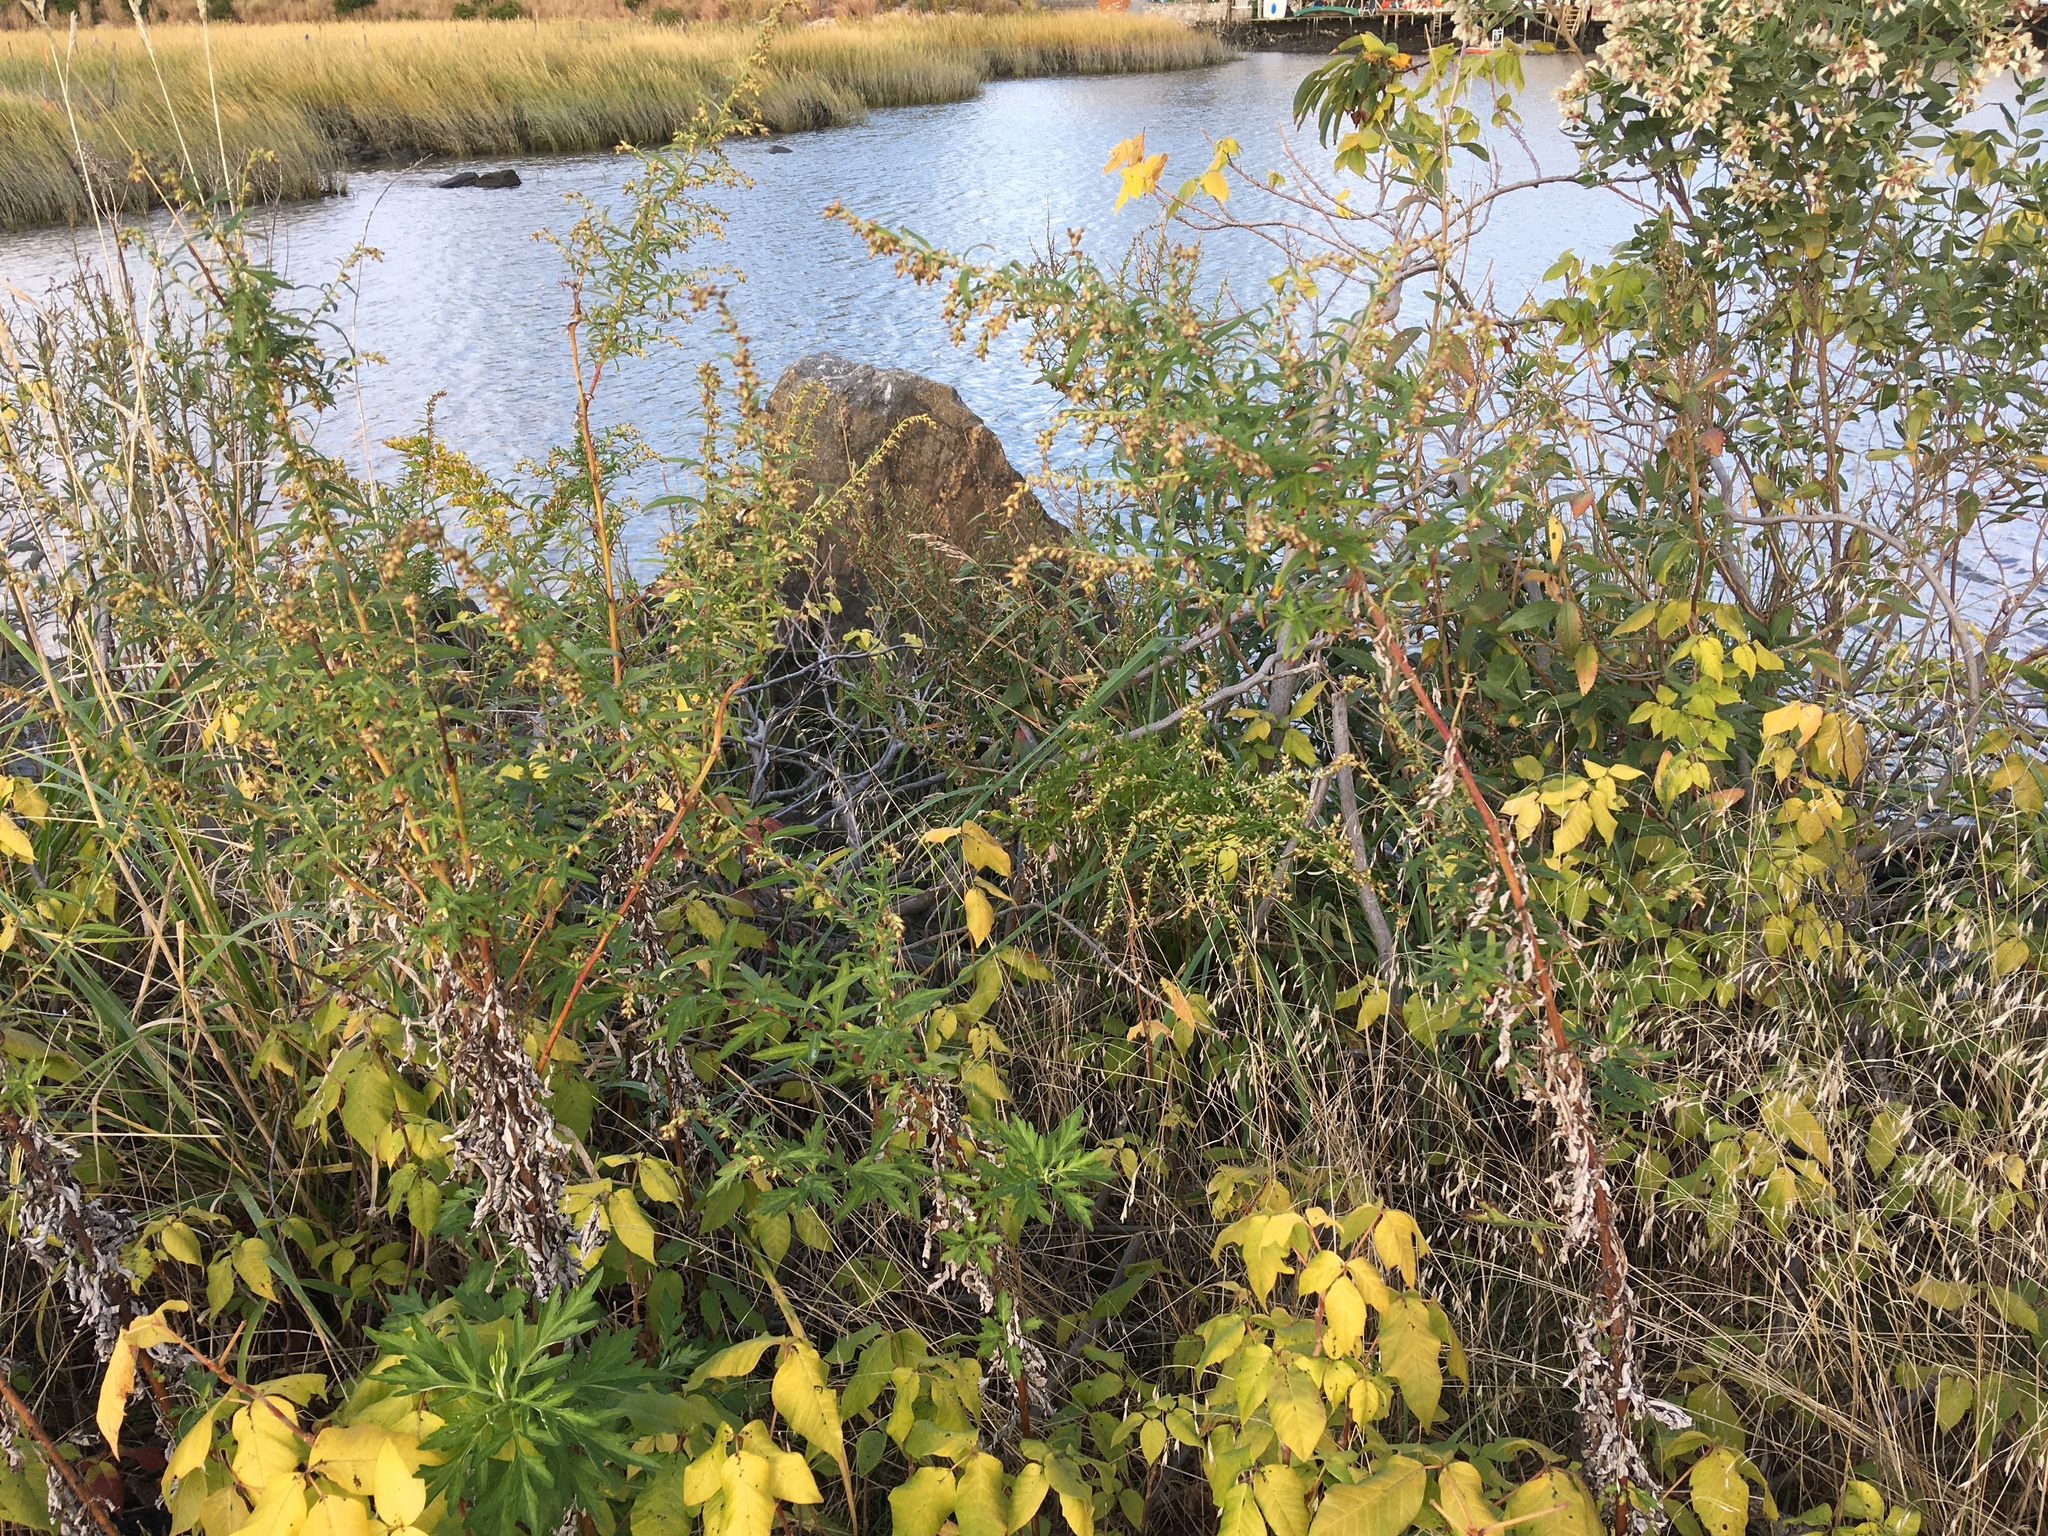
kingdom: Plantae
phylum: Tracheophyta
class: Magnoliopsida
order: Asterales
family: Asteraceae
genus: Artemisia
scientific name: Artemisia vulgaris
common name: Mugwort
